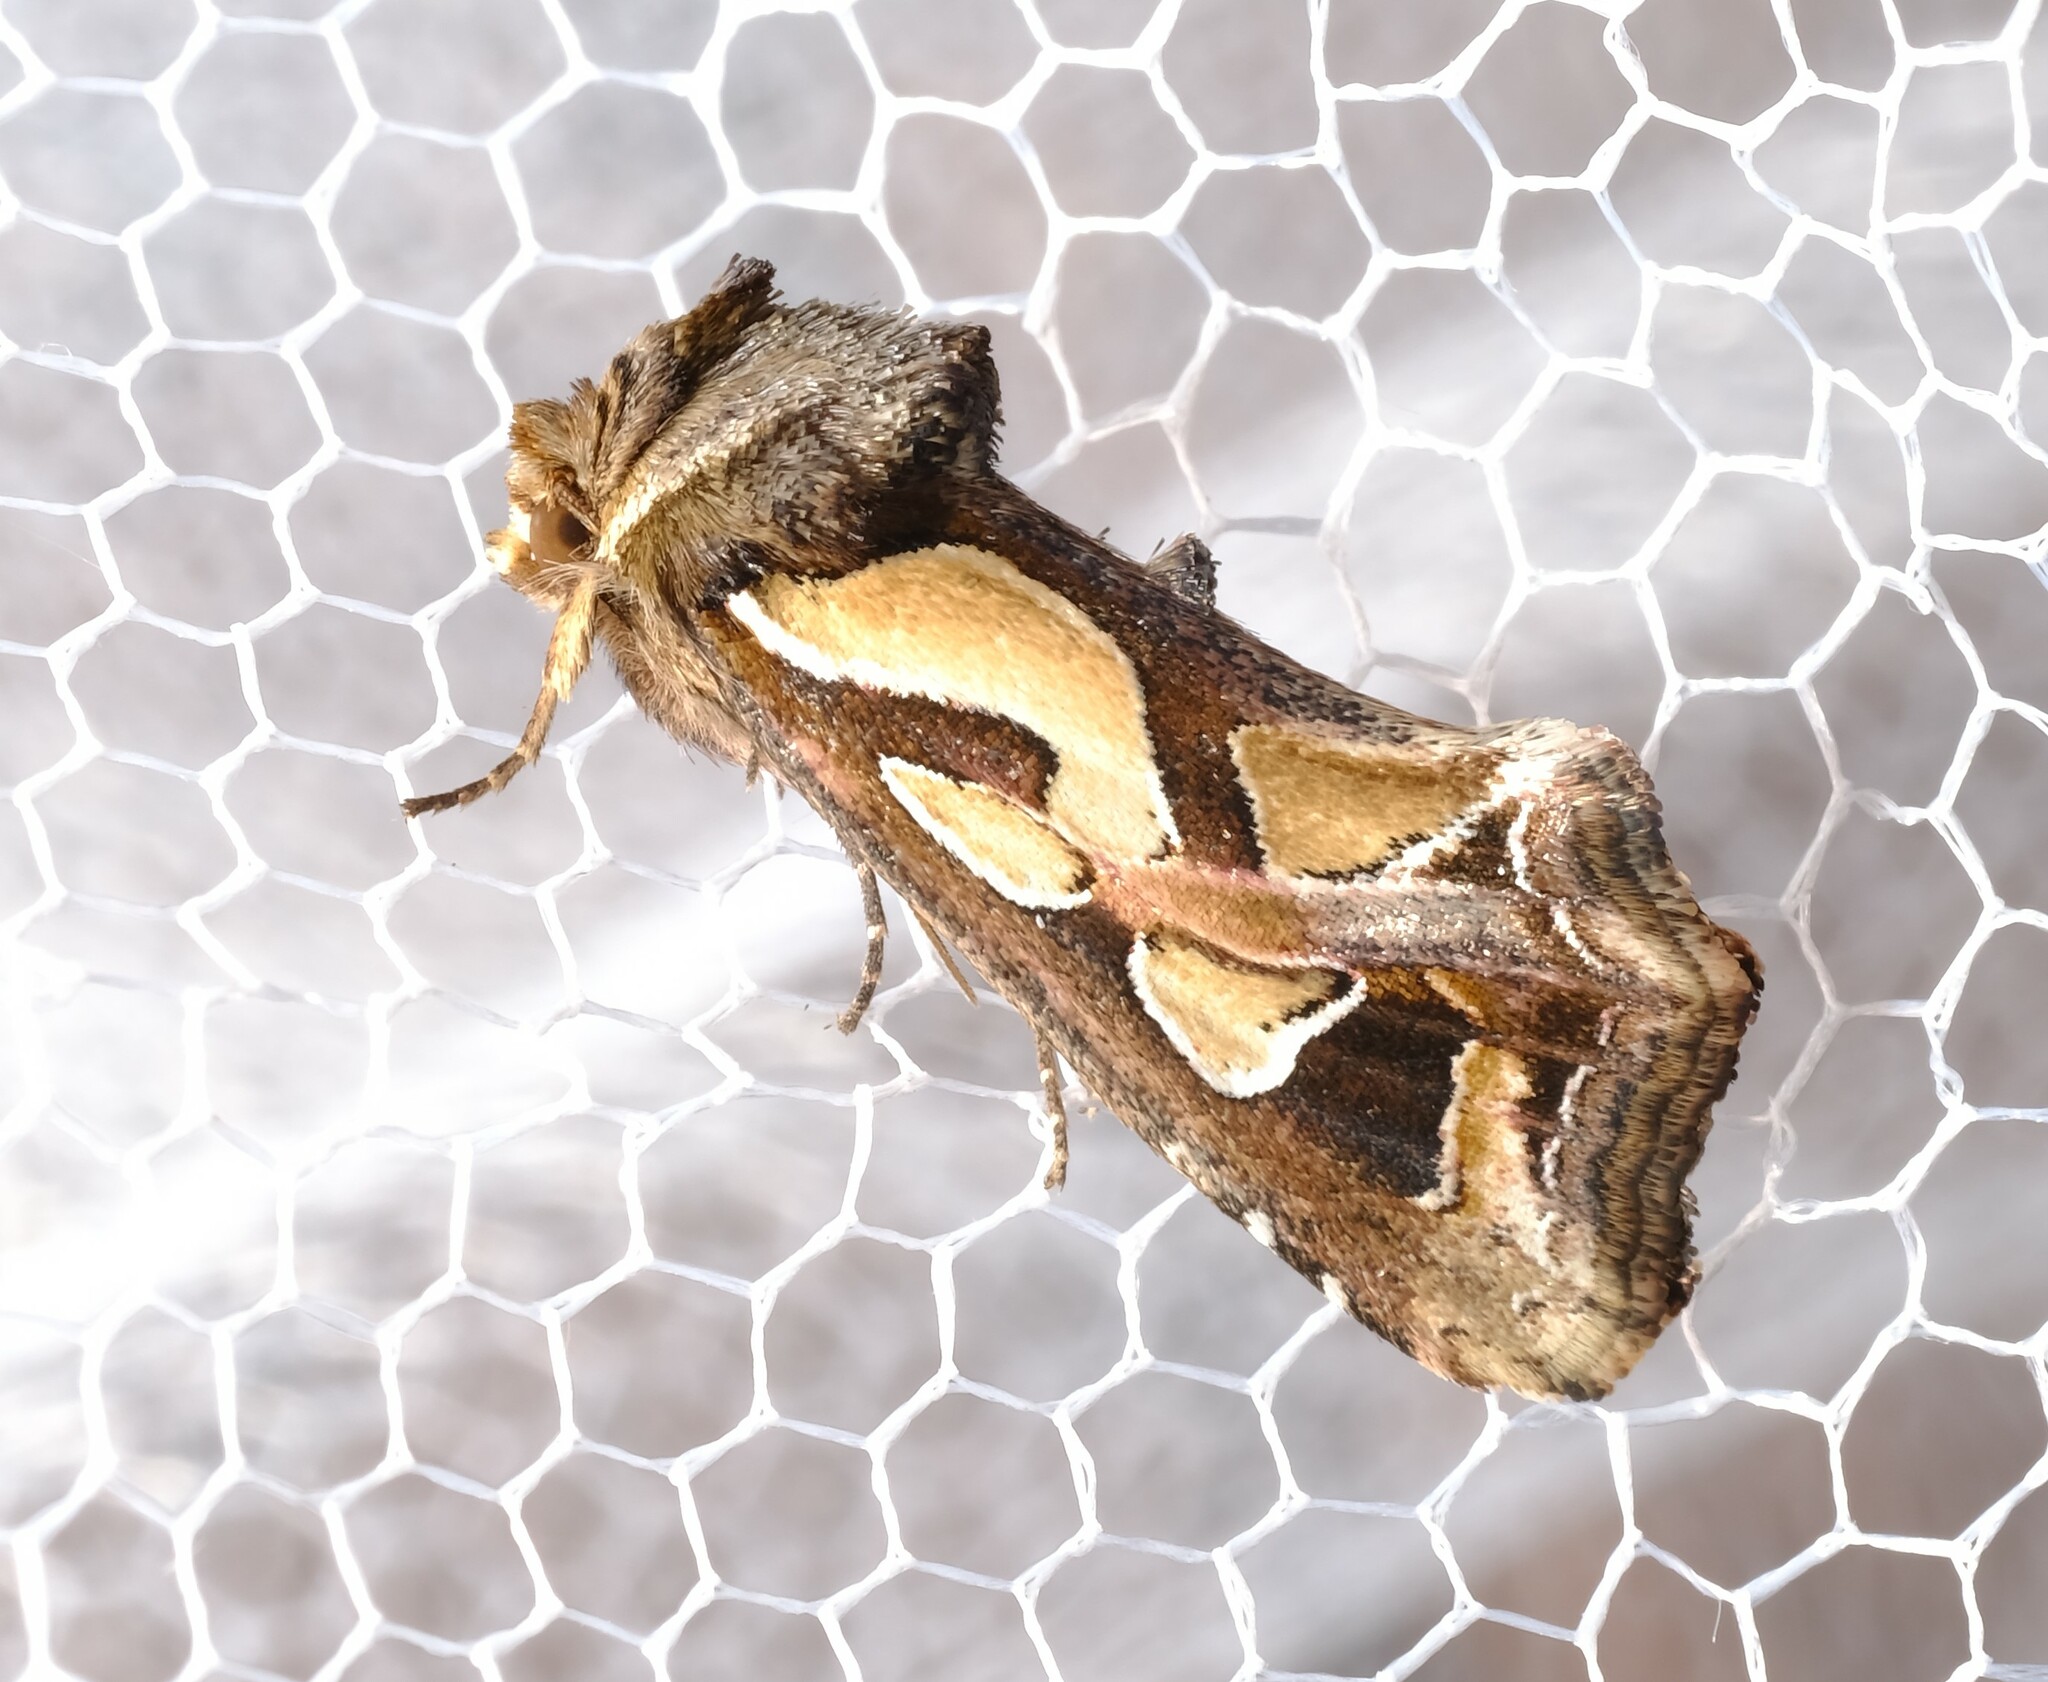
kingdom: Animalia
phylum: Arthropoda
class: Insecta
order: Lepidoptera
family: Noctuidae
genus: Cosmodes
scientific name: Cosmodes elegans
